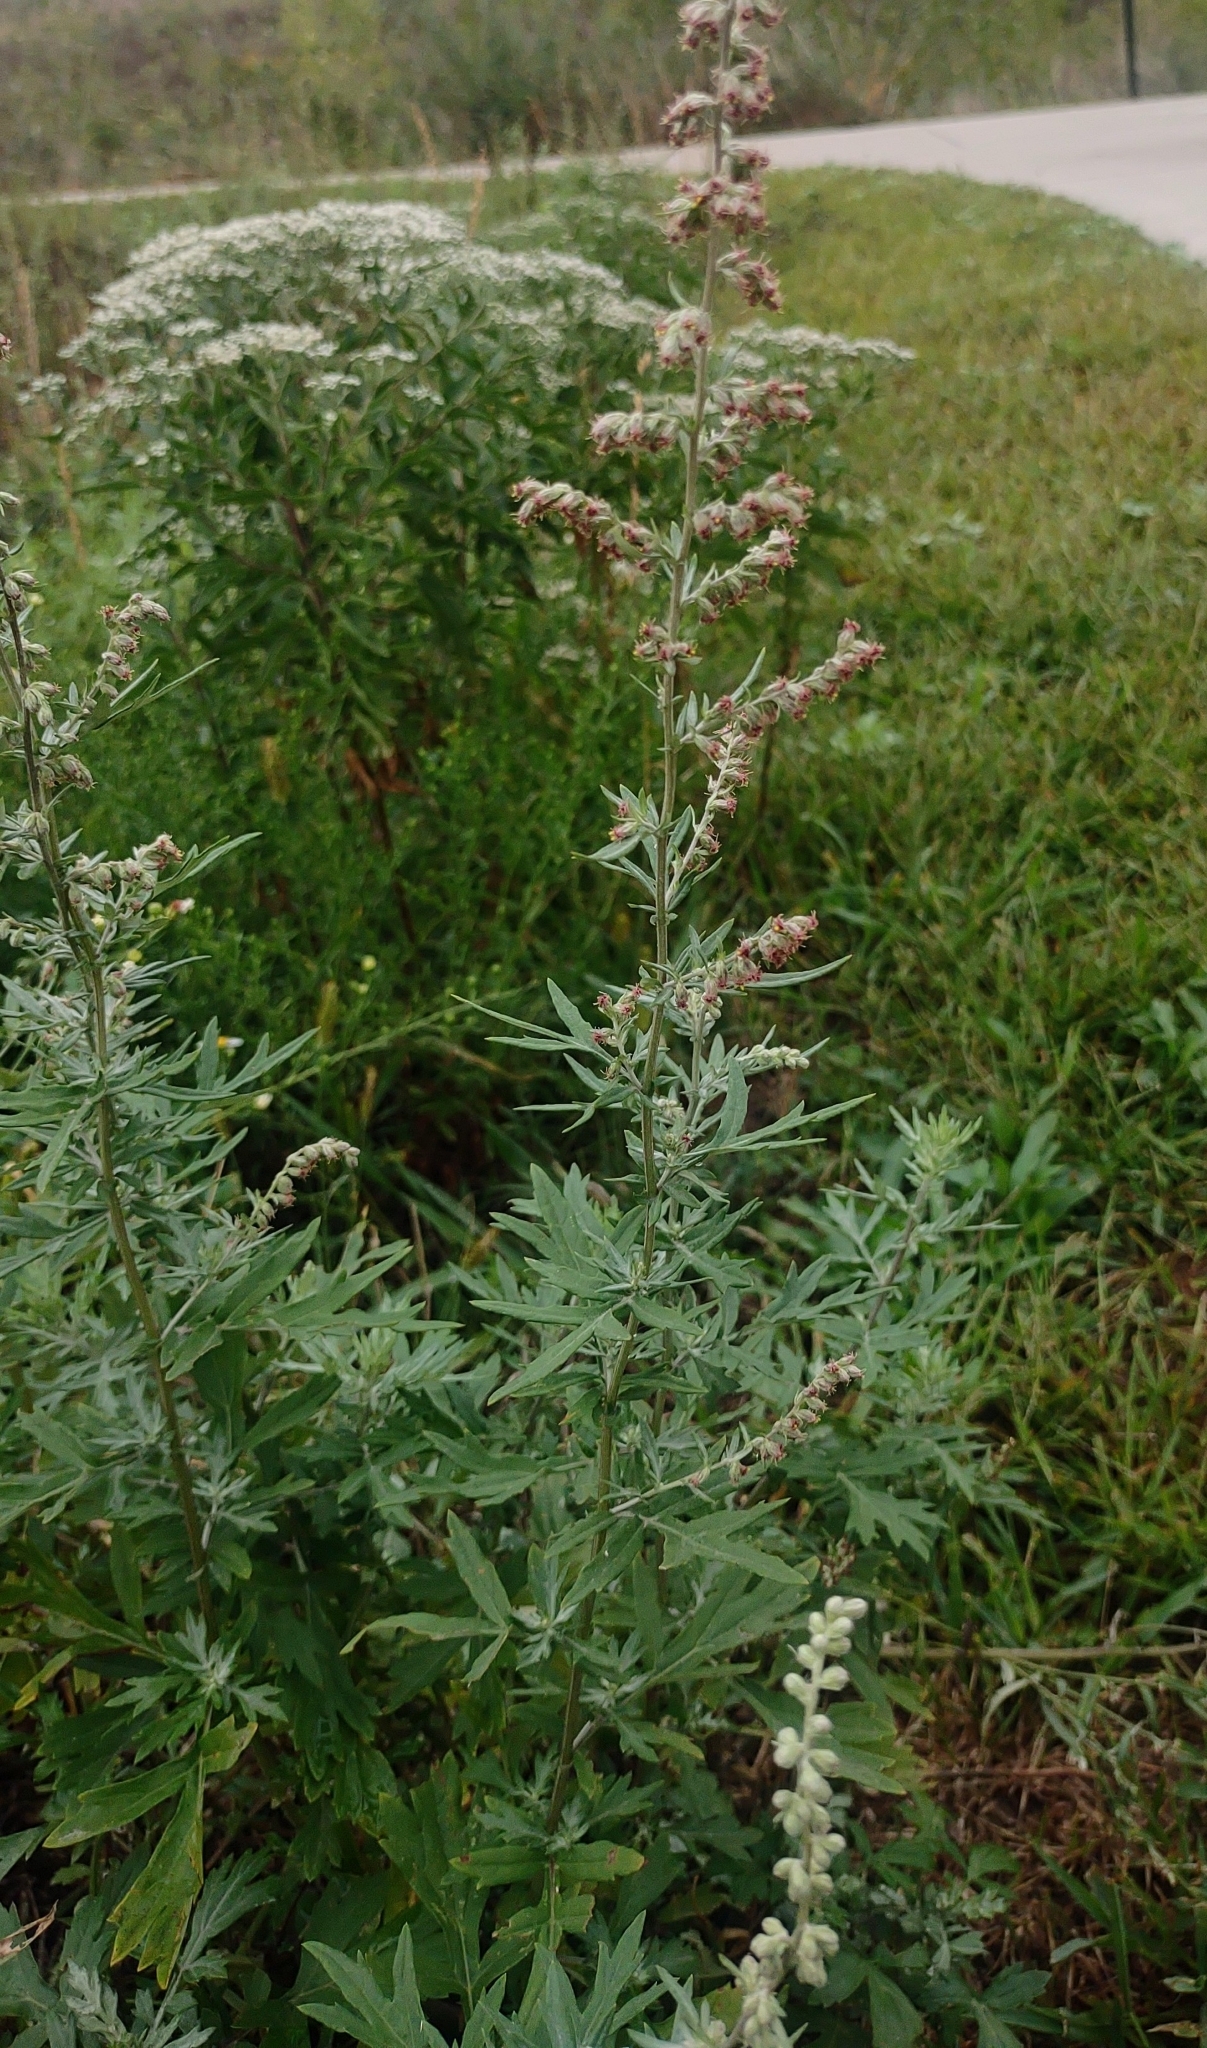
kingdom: Plantae
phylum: Tracheophyta
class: Magnoliopsida
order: Asterales
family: Asteraceae
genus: Artemisia
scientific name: Artemisia vulgaris
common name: Mugwort
